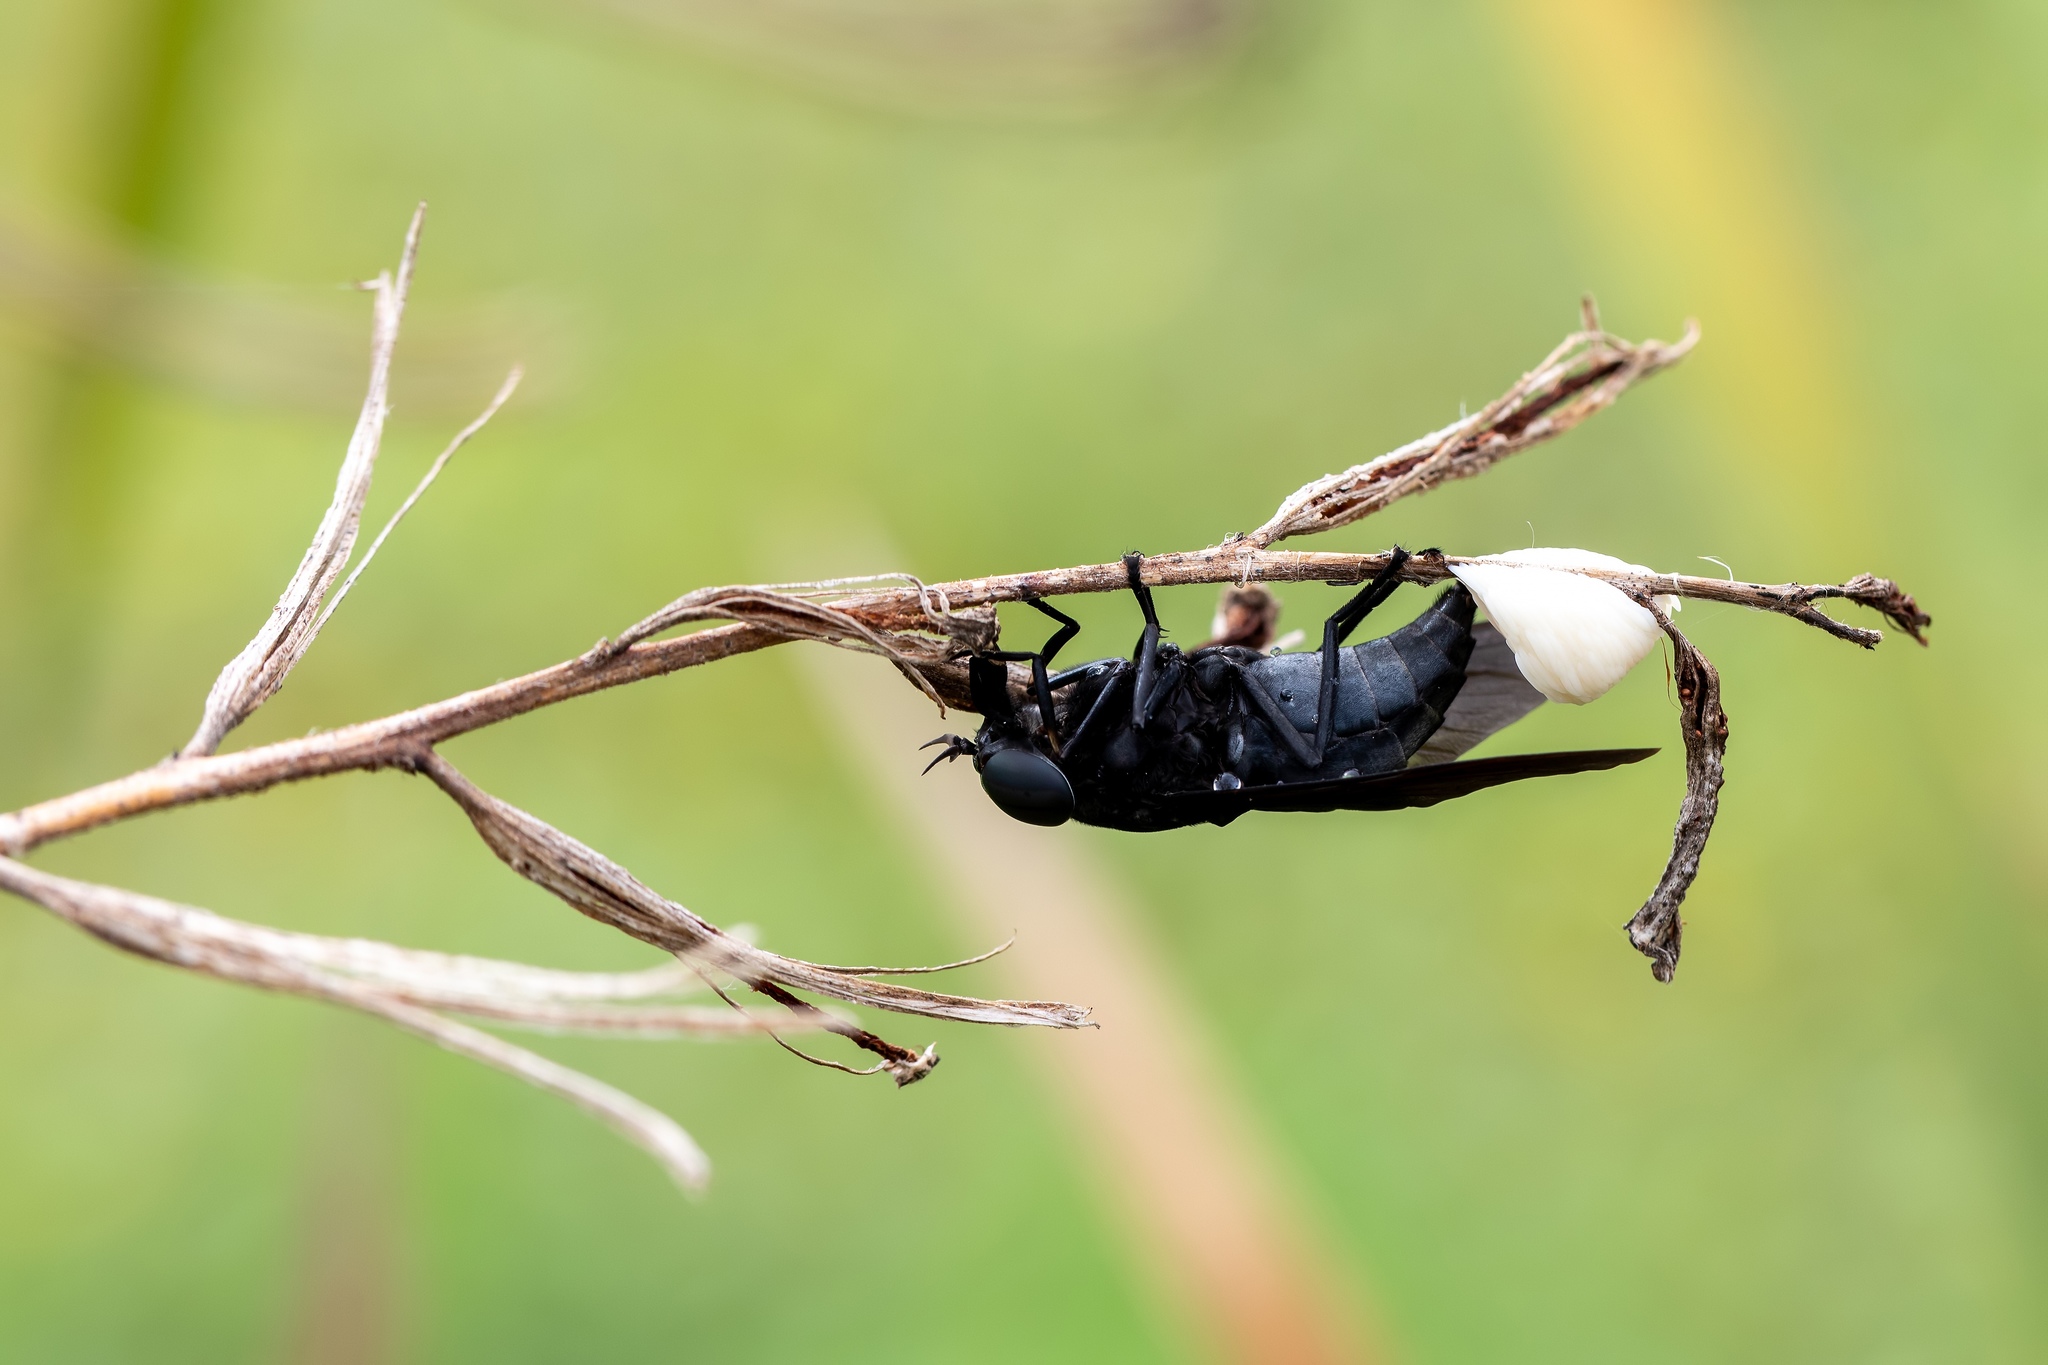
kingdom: Animalia
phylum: Arthropoda
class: Insecta
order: Diptera
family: Tabanidae
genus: Tabanus
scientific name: Tabanus atratus
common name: Black horse fly
